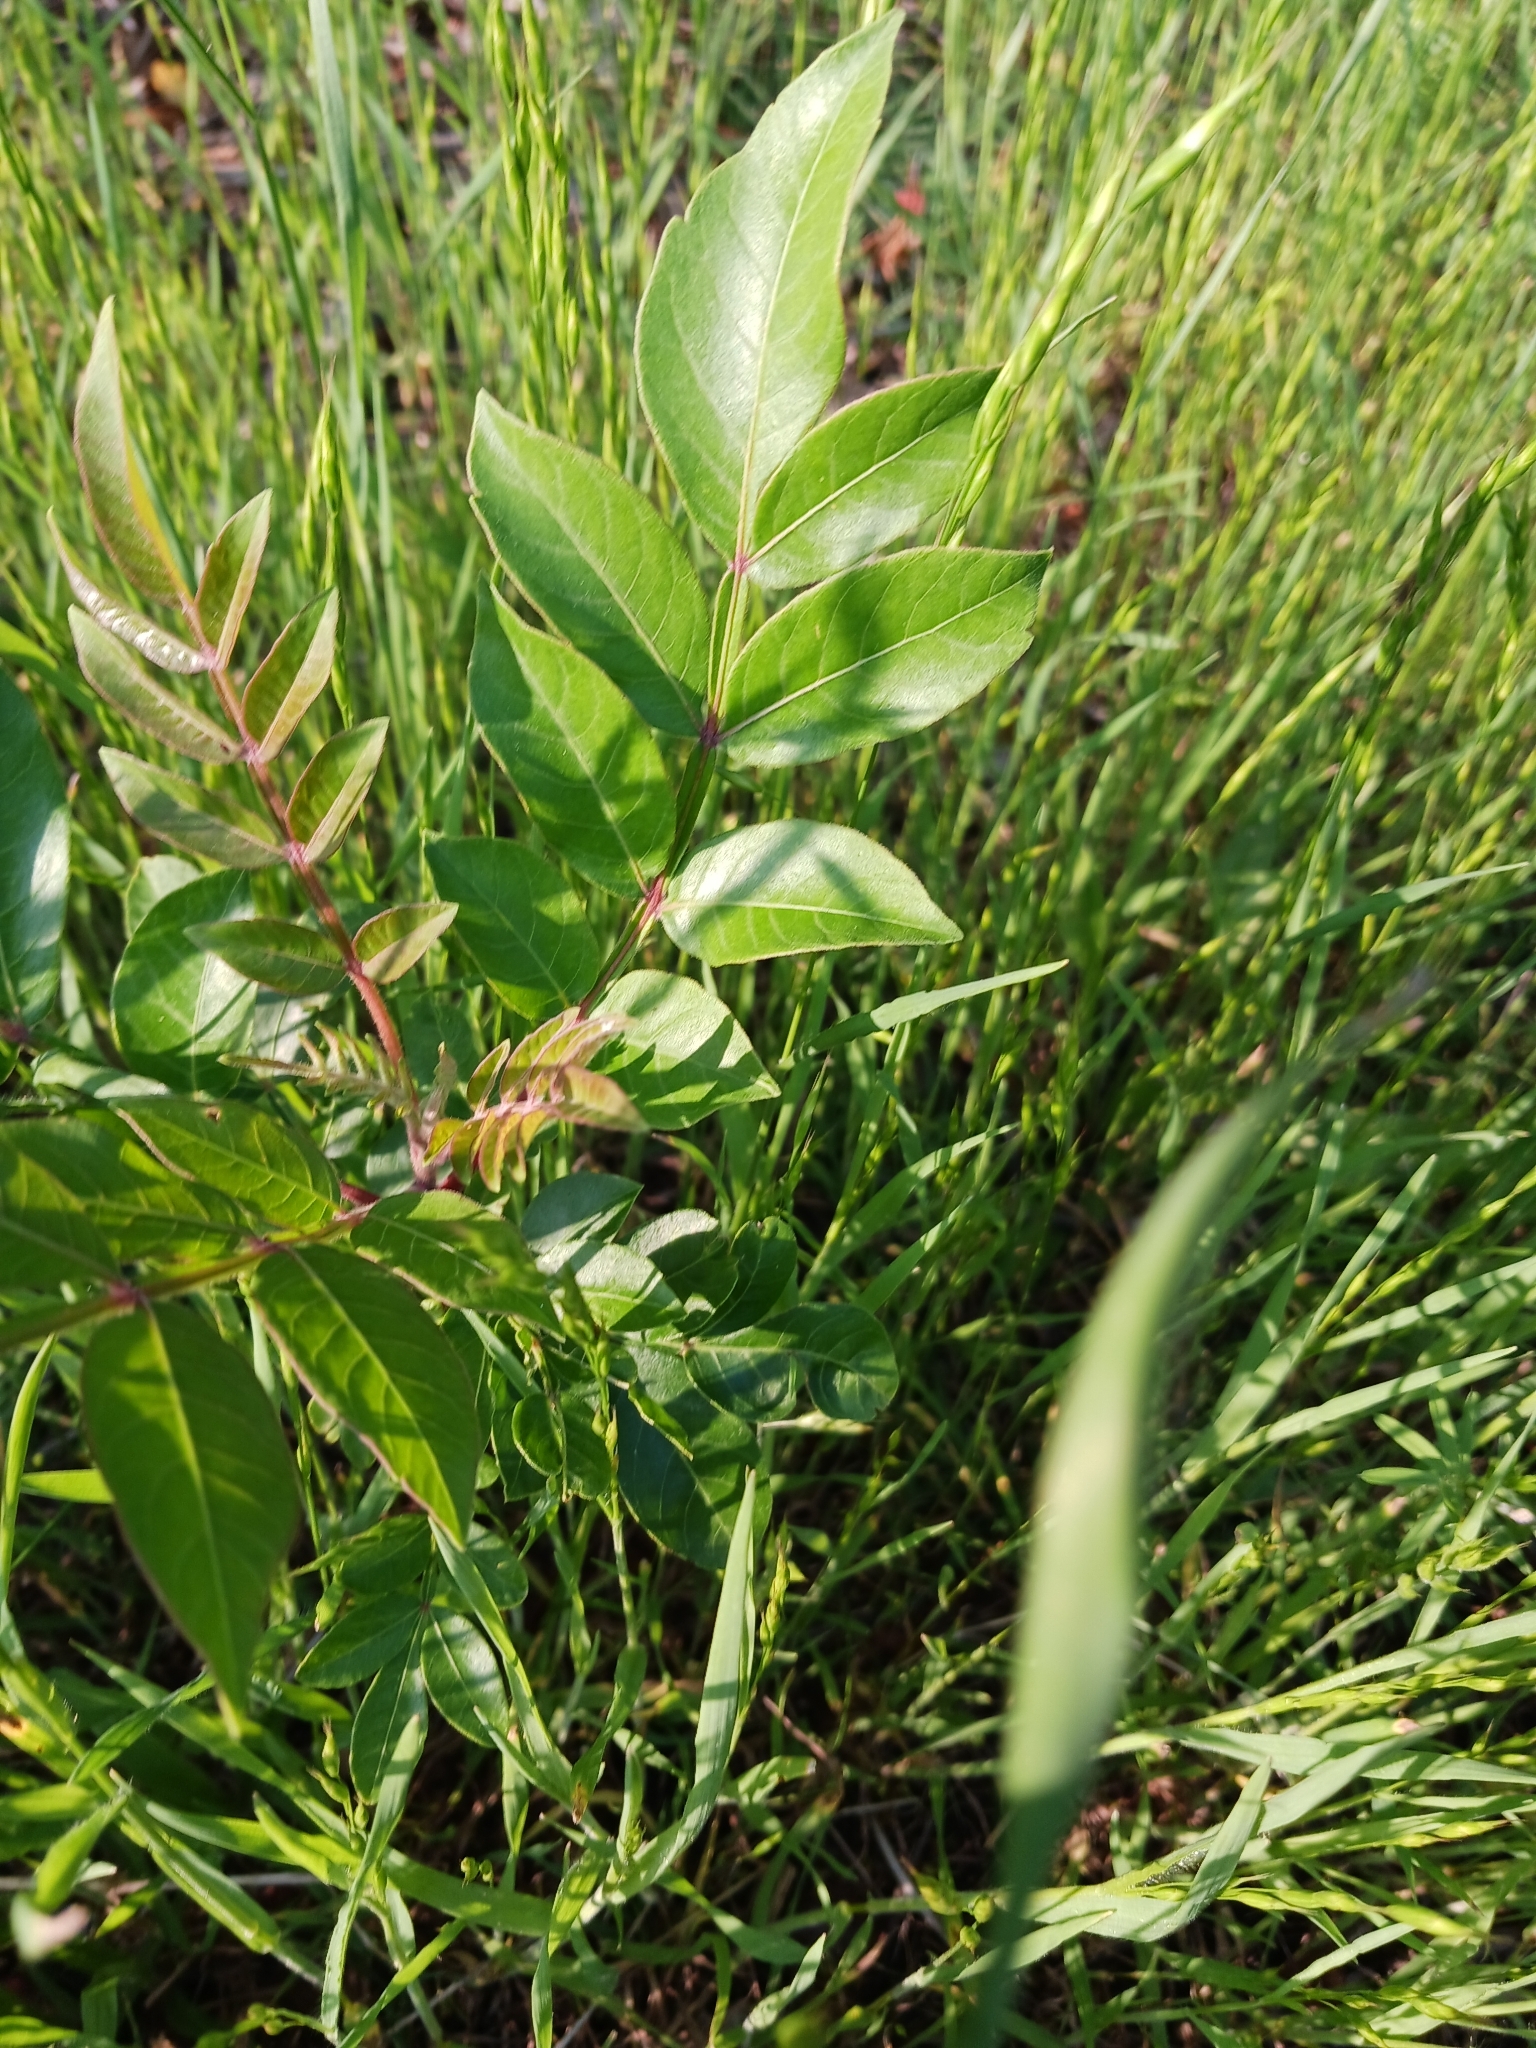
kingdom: Plantae
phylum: Tracheophyta
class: Magnoliopsida
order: Sapindales
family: Anacardiaceae
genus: Rhus
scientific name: Rhus copallina
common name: Shining sumac
